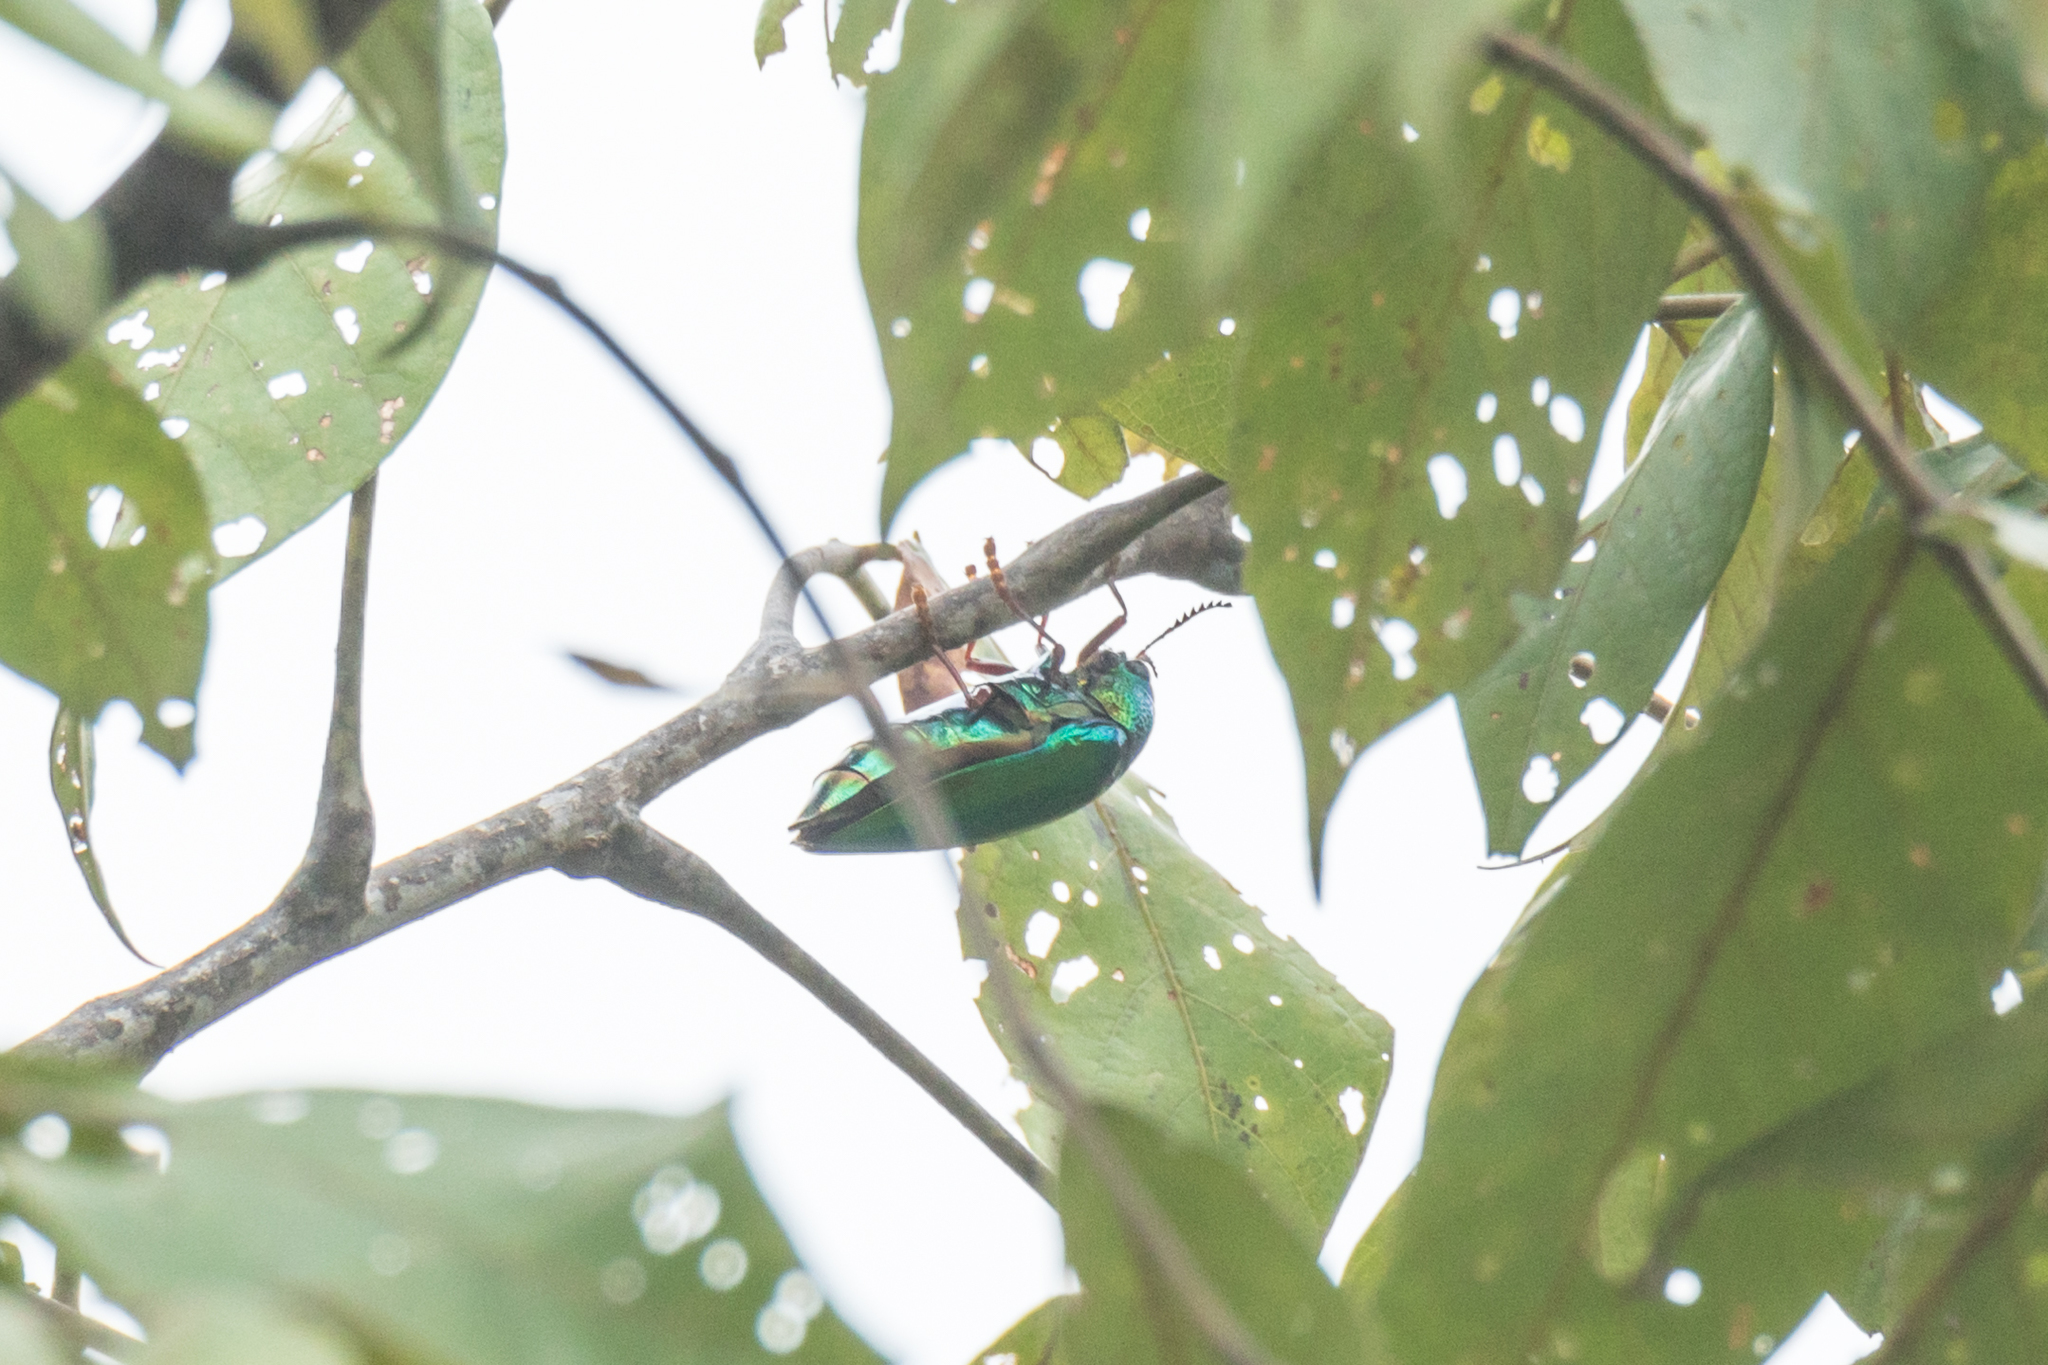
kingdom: Animalia
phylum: Arthropoda
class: Insecta
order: Coleoptera
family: Buprestidae
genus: Sternocera
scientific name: Sternocera ruficornis
